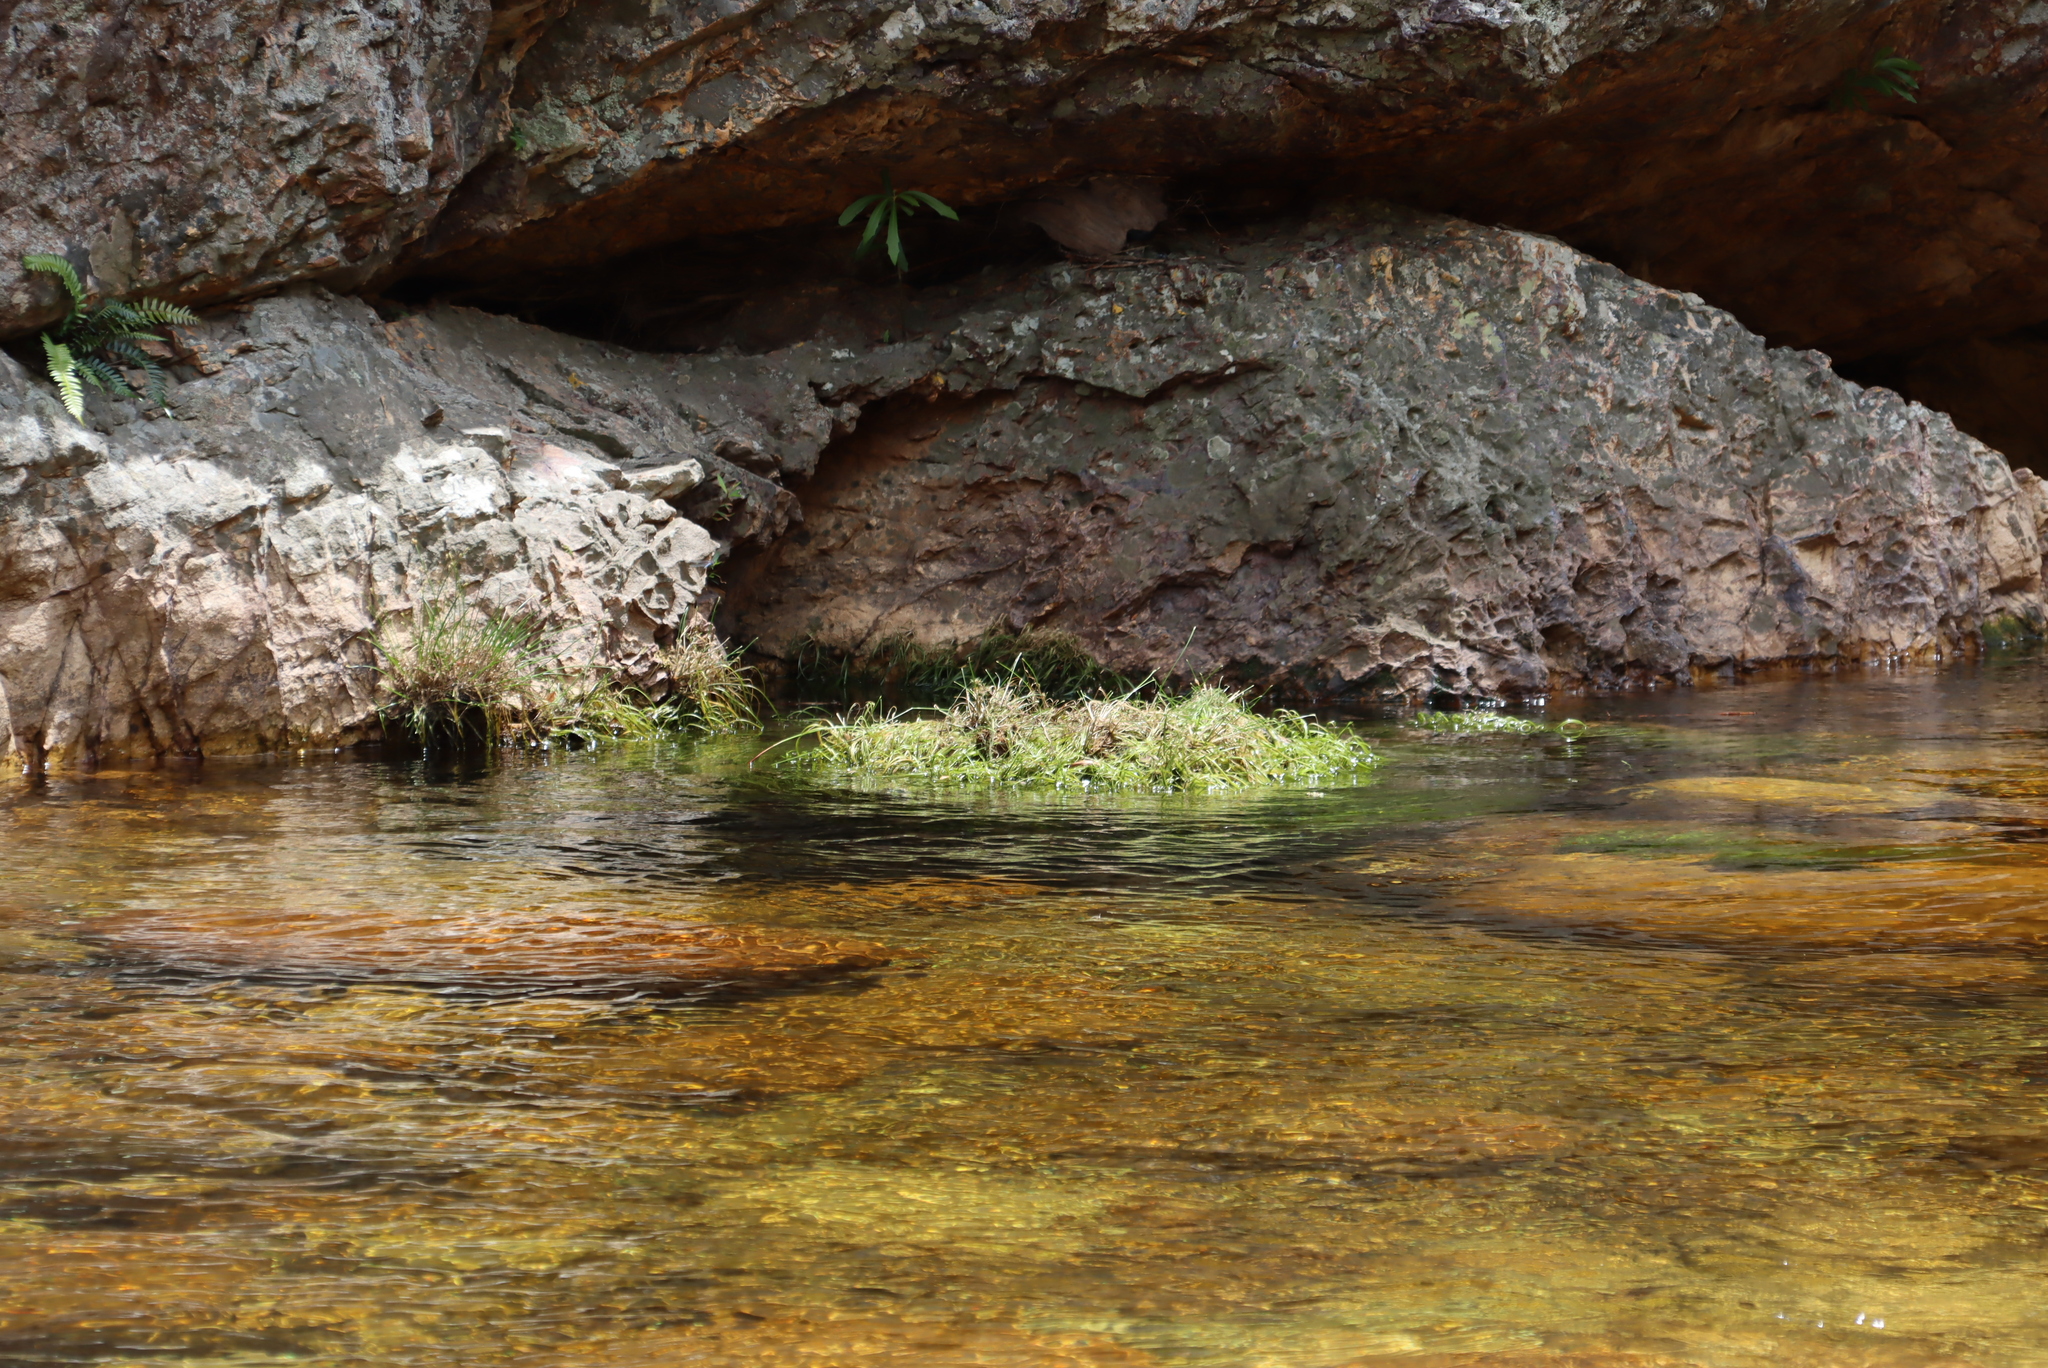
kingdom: Plantae
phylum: Tracheophyta
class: Liliopsida
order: Poales
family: Cyperaceae
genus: Isolepis
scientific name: Isolepis digitata
